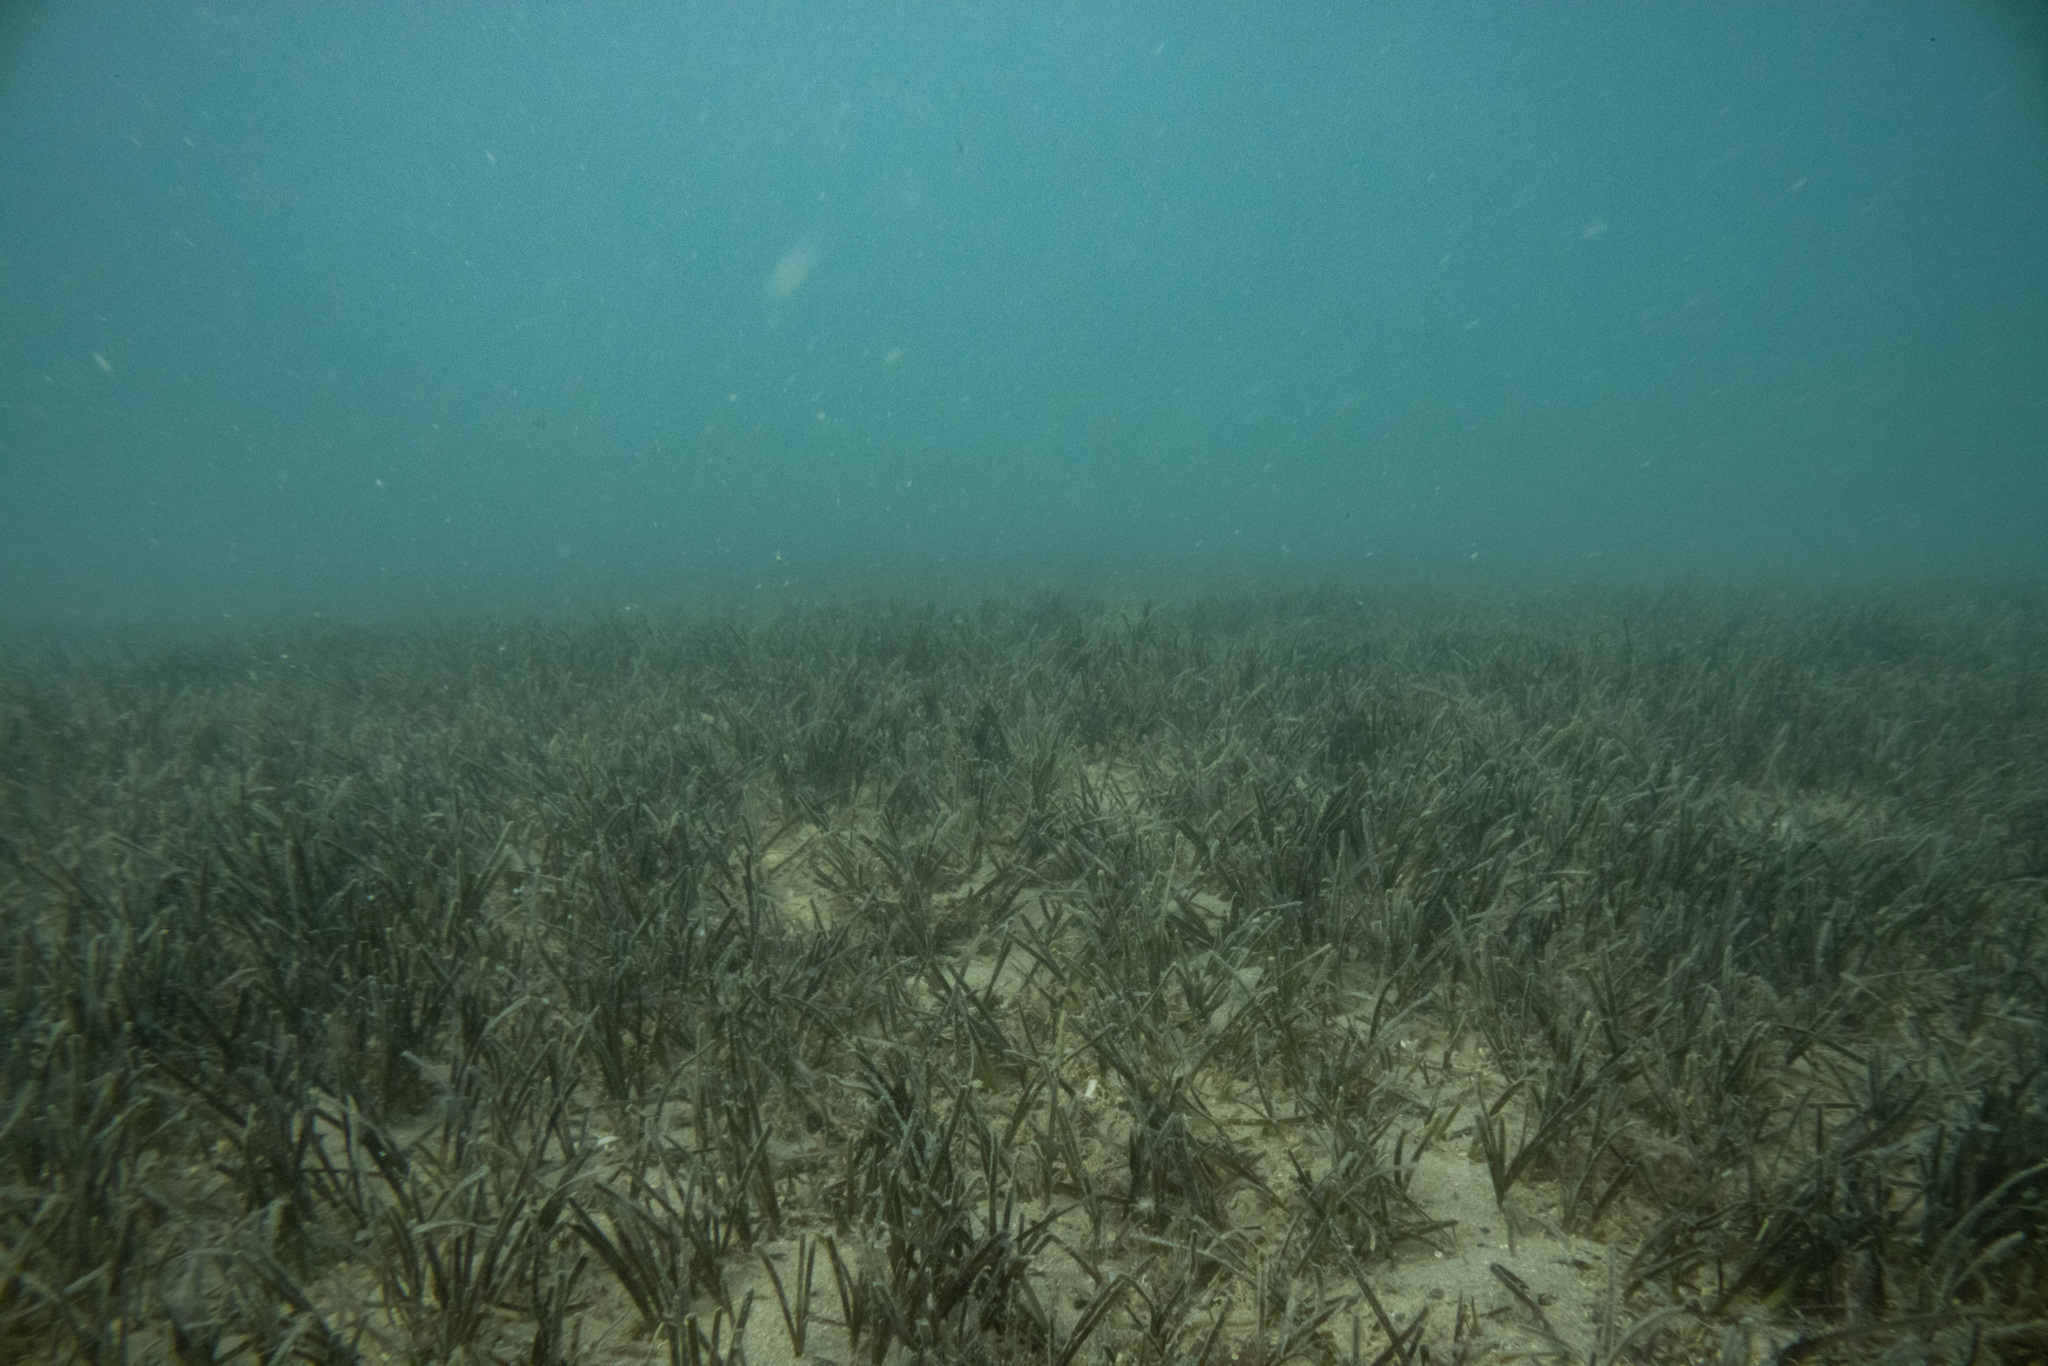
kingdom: Plantae
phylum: Tracheophyta
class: Liliopsida
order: Alismatales
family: Zosteraceae
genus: Zostera
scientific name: Zostera novazelandica
